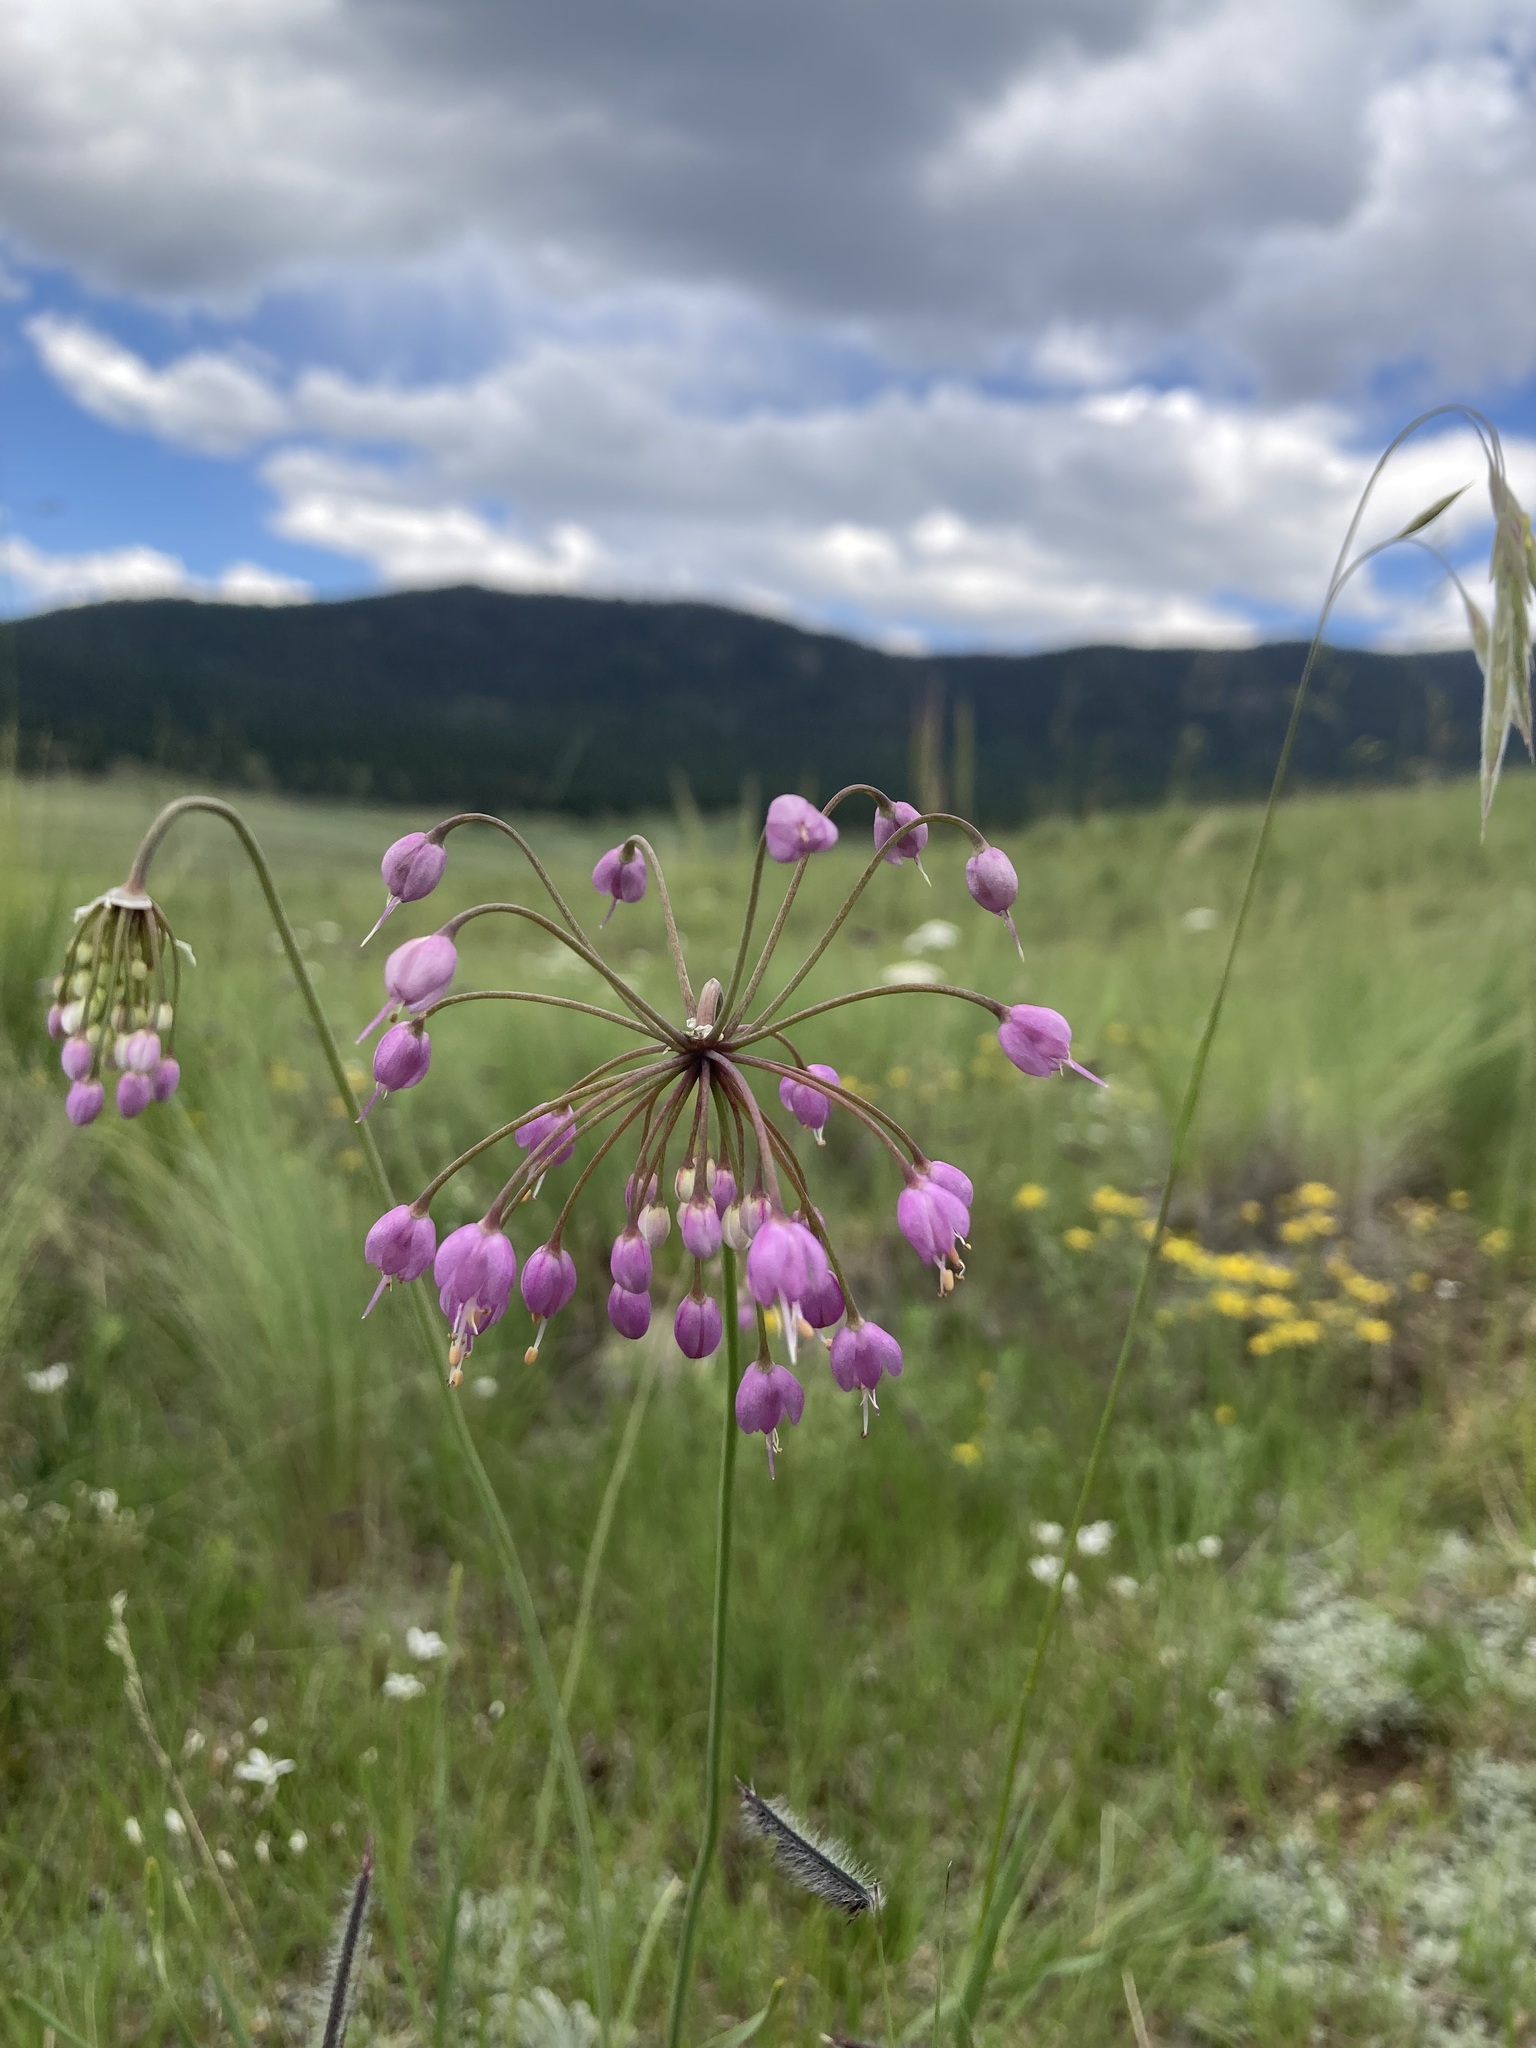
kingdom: Plantae
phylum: Tracheophyta
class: Liliopsida
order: Asparagales
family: Amaryllidaceae
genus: Allium
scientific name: Allium cernuum
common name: Nodding onion
